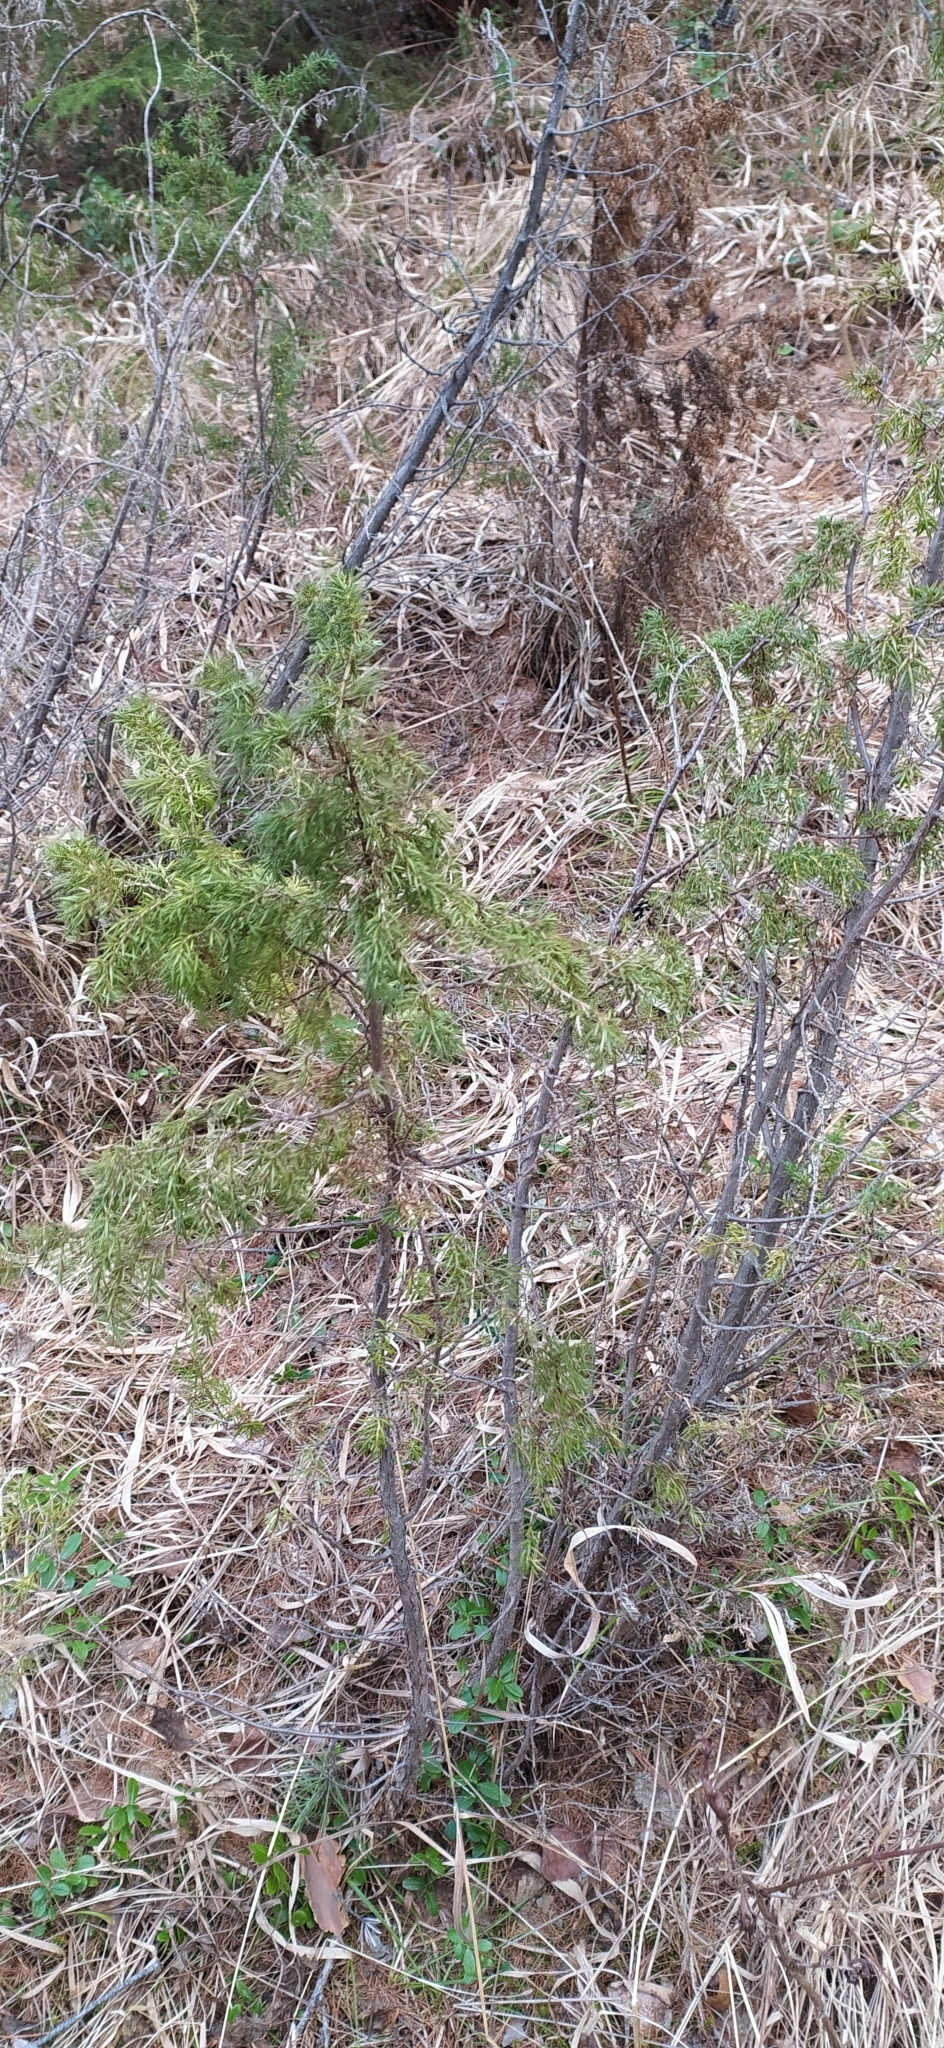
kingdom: Plantae
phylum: Tracheophyta
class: Pinopsida
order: Pinales
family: Cupressaceae
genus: Juniperus
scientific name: Juniperus communis
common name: Common juniper
